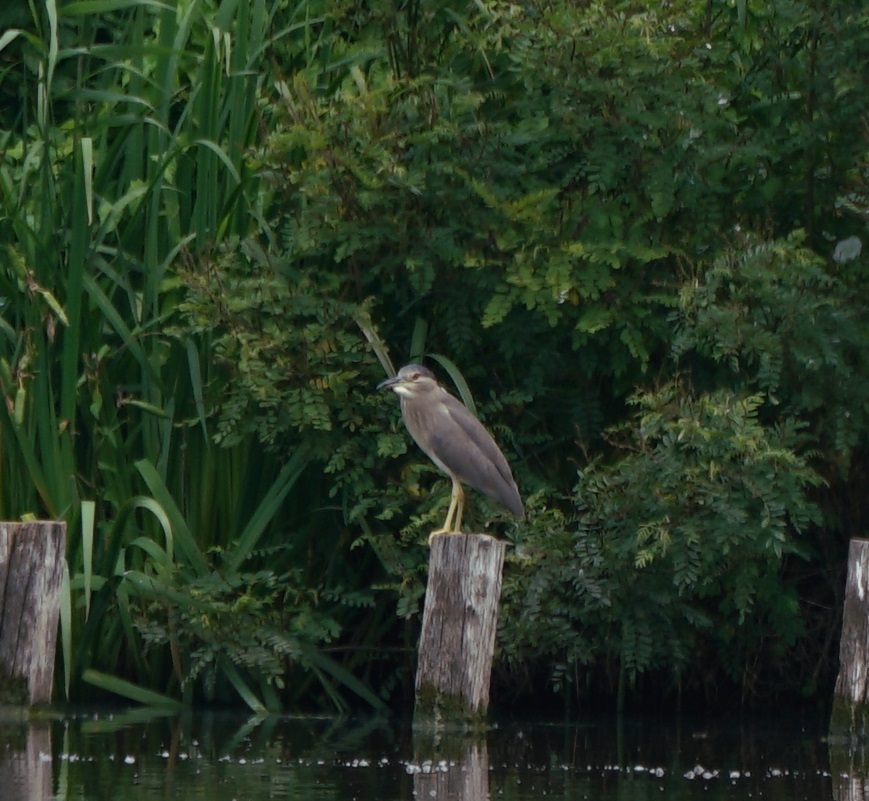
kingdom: Animalia
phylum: Chordata
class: Aves
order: Pelecaniformes
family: Ardeidae
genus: Nycticorax
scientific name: Nycticorax nycticorax
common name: Black-crowned night heron
